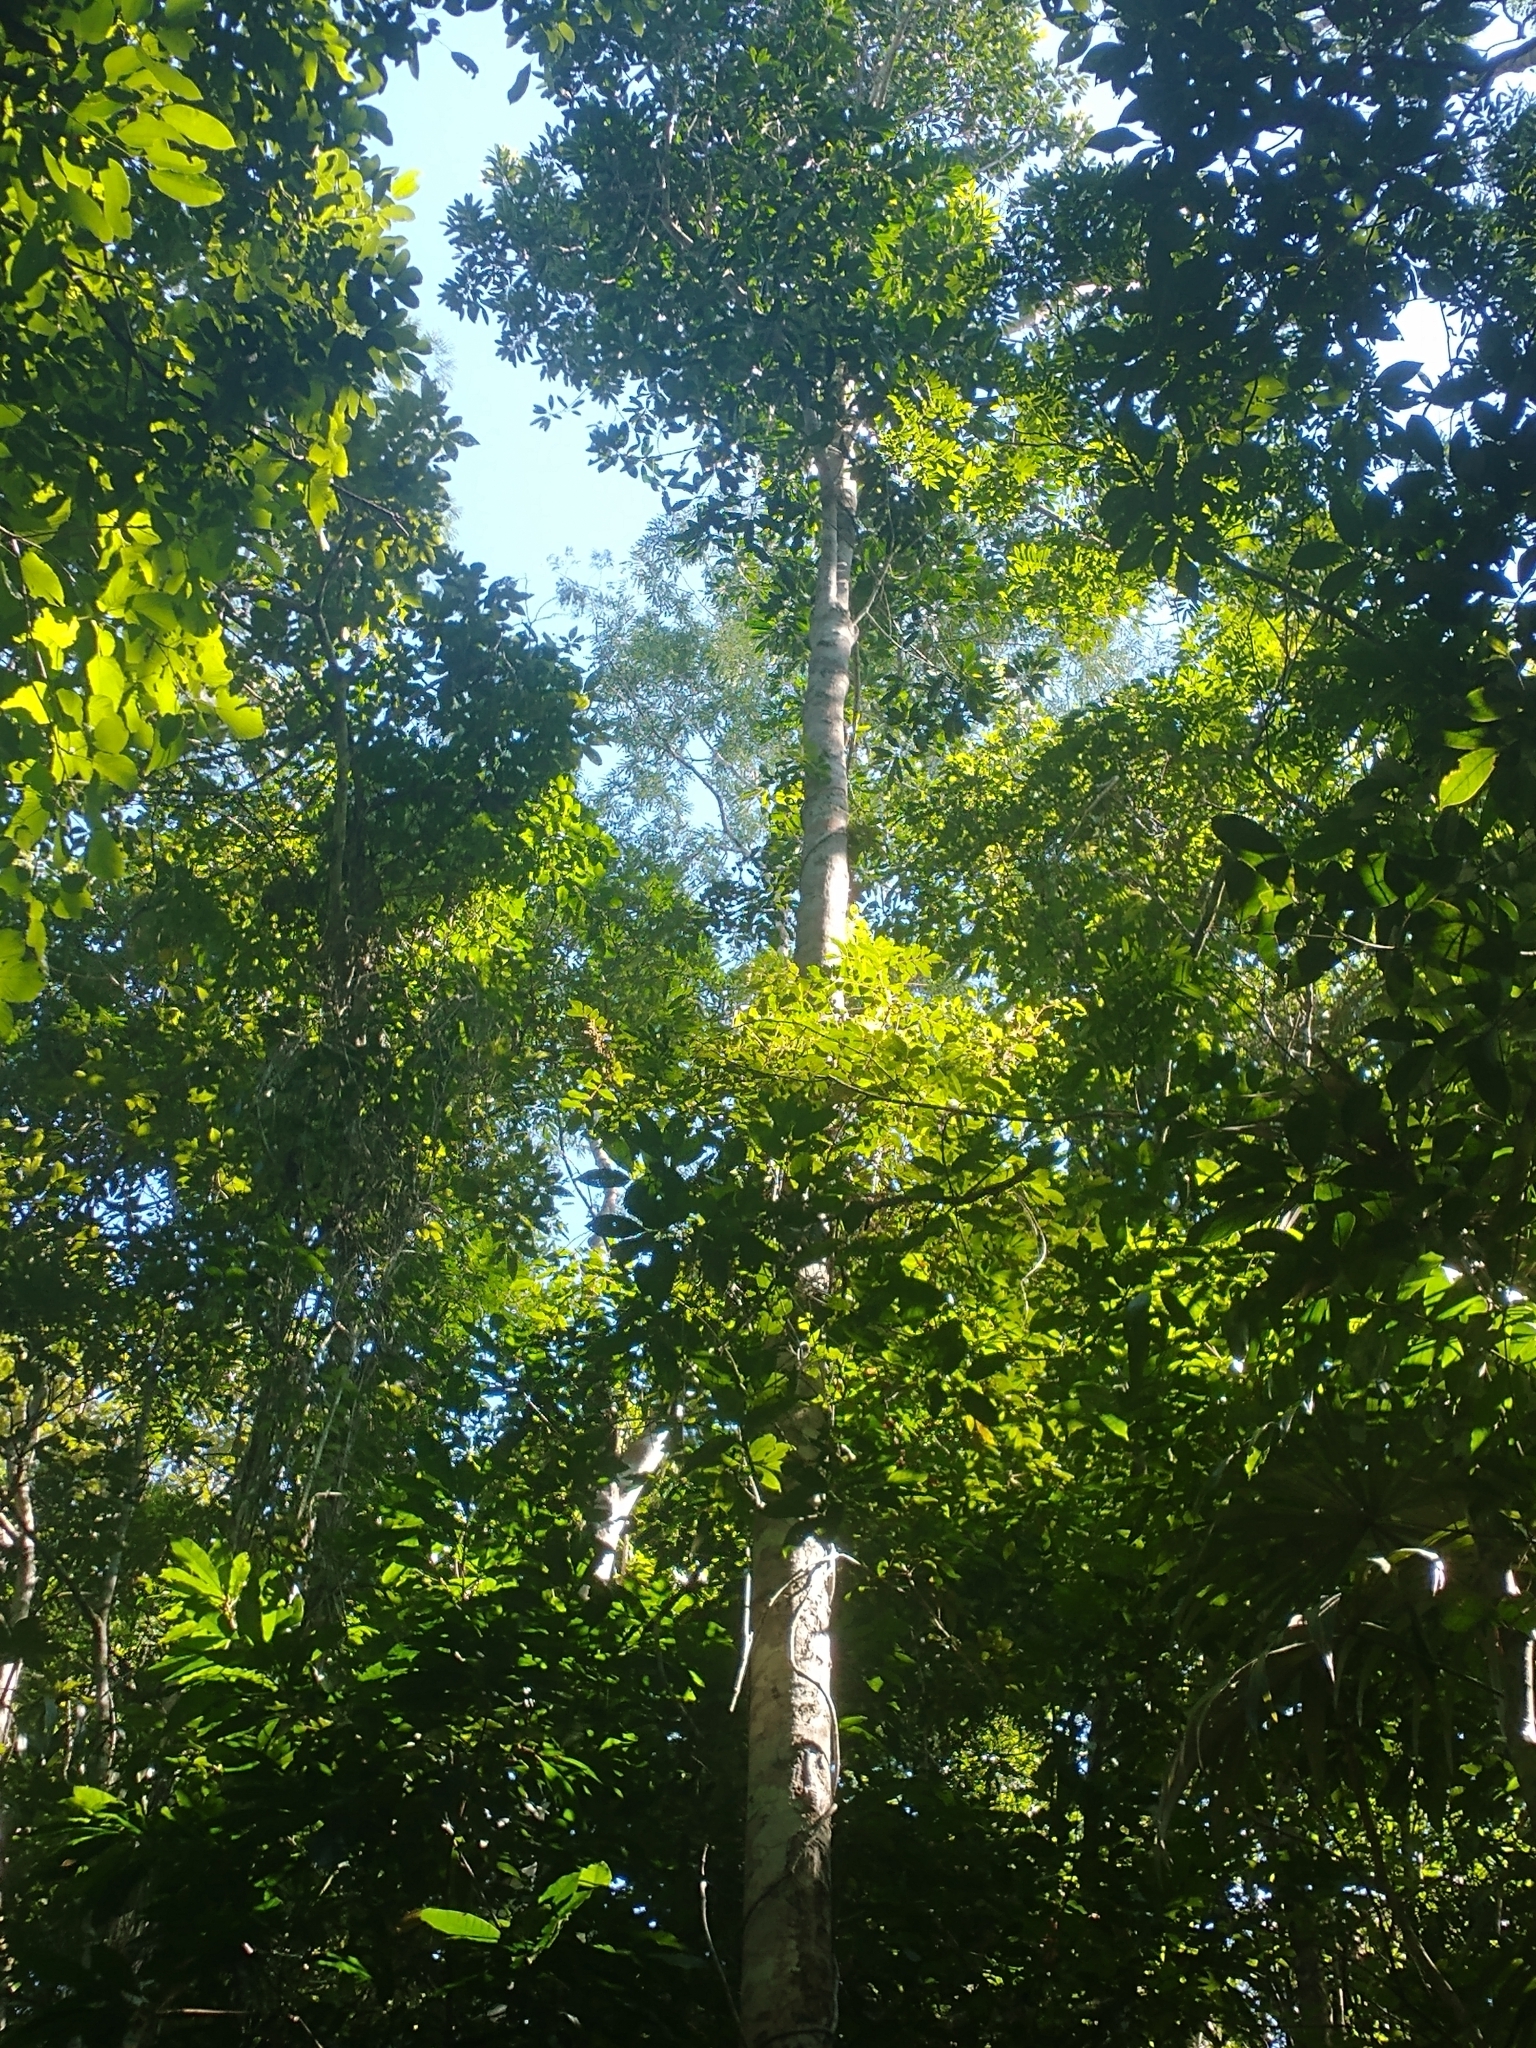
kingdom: Plantae
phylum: Tracheophyta
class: Magnoliopsida
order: Gentianales
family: Apocynaceae
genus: Aspidosperma
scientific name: Aspidosperma spruceanum
